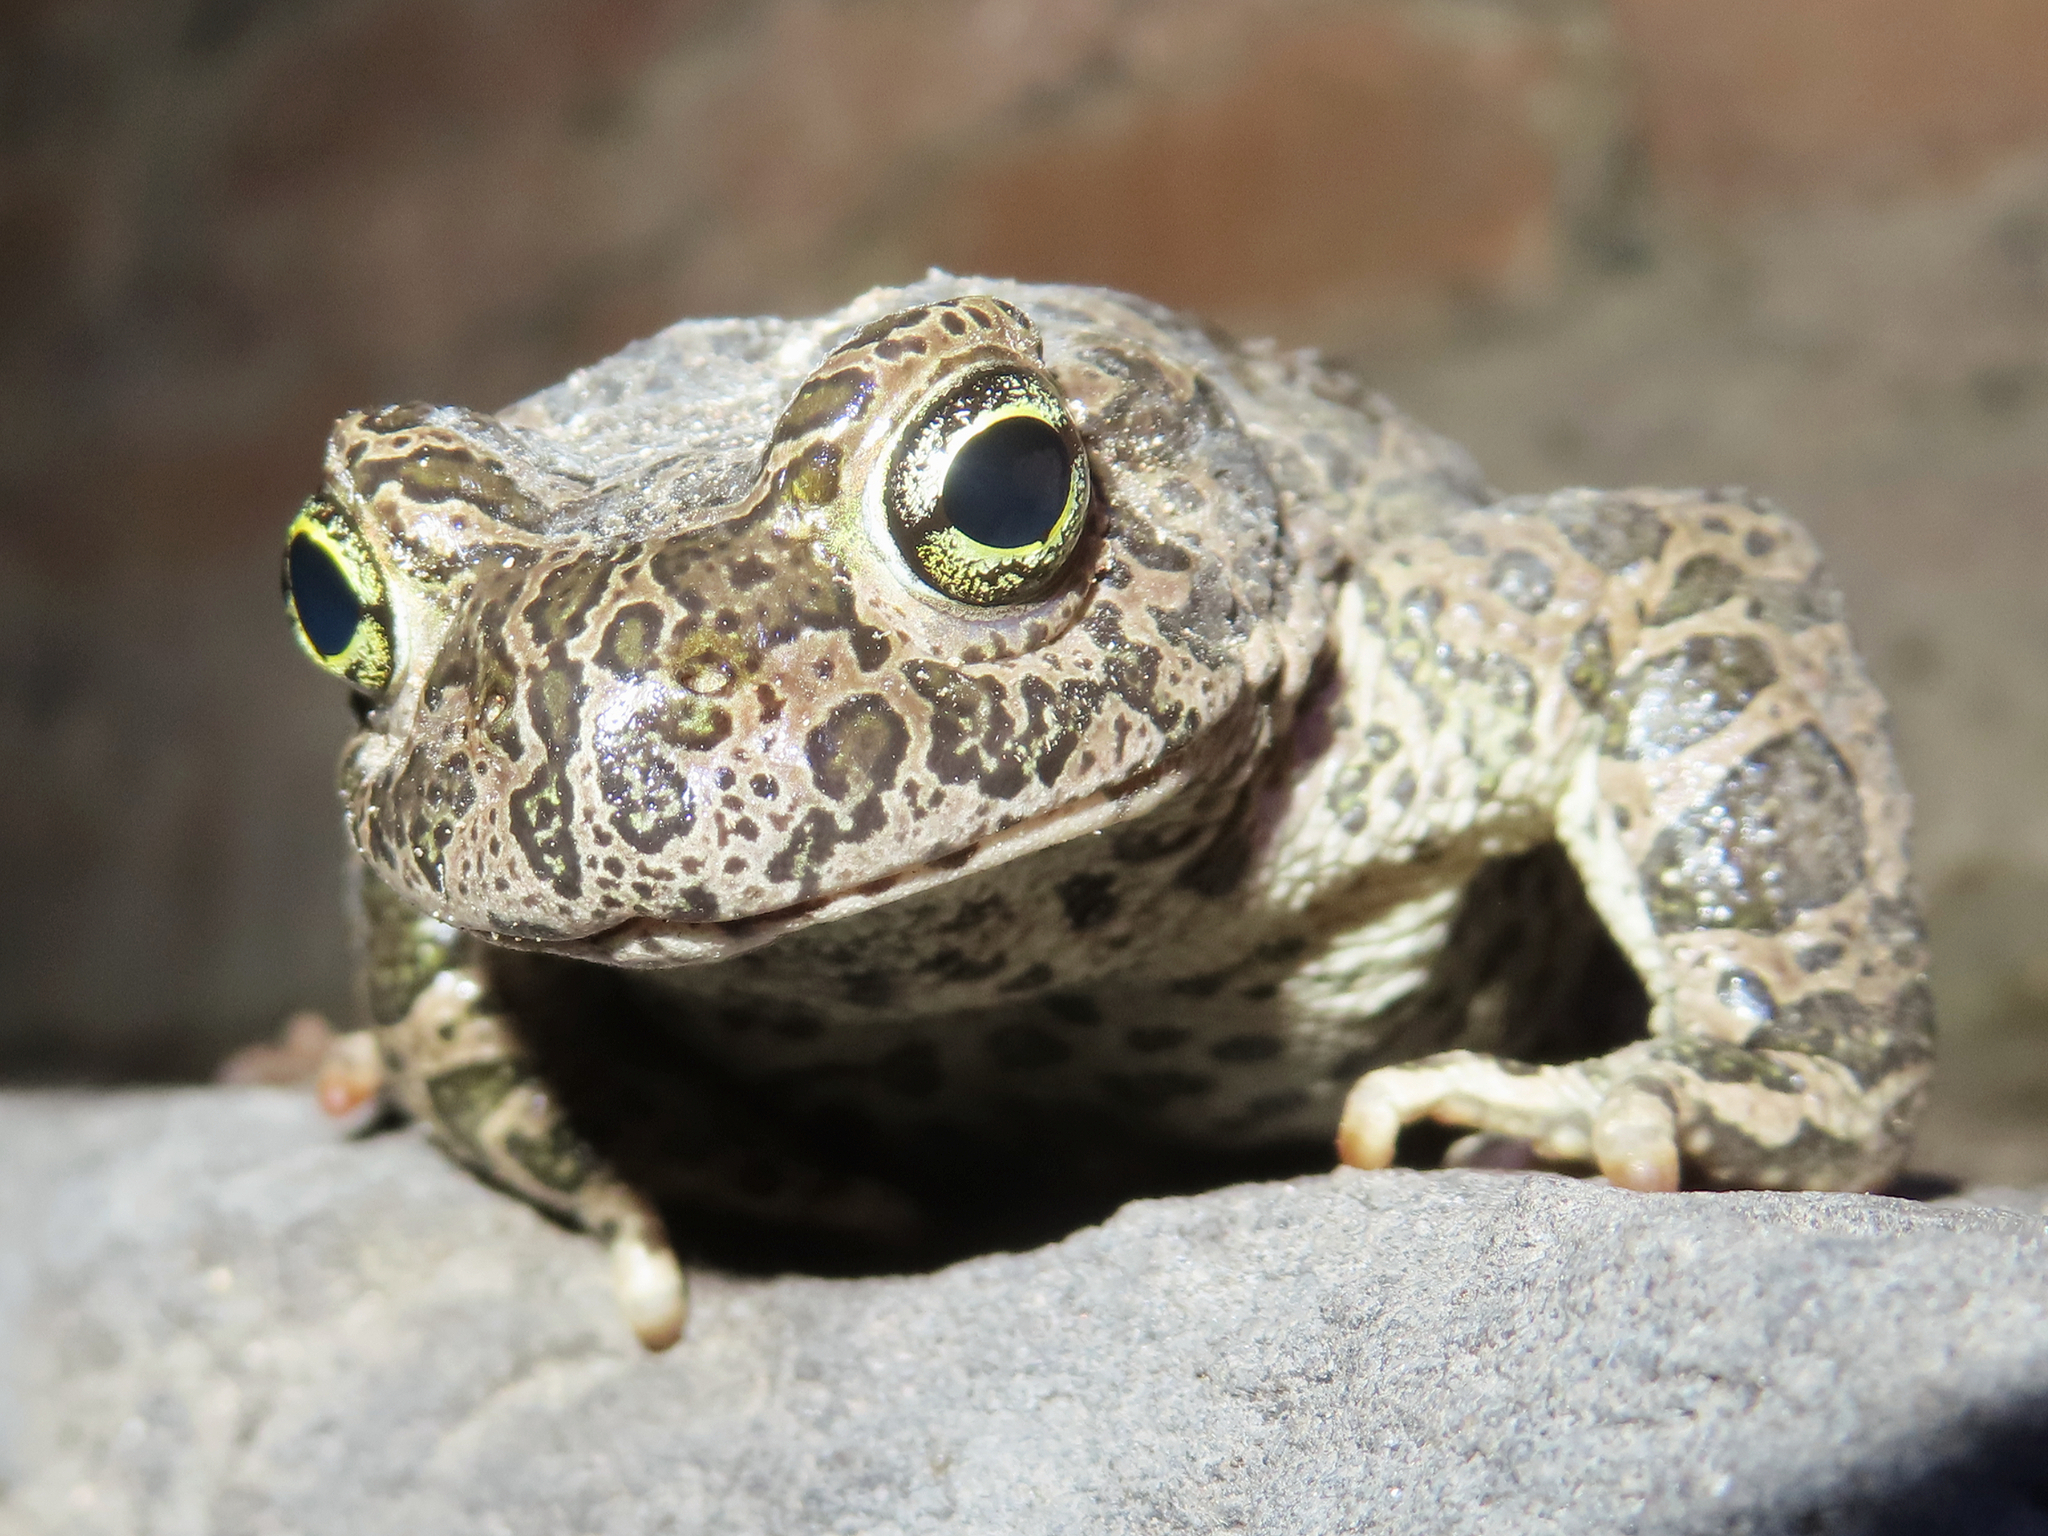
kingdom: Animalia
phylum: Chordata
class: Amphibia
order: Anura
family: Bufonidae
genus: Bufotes
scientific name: Bufotes viridis
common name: European green toad
